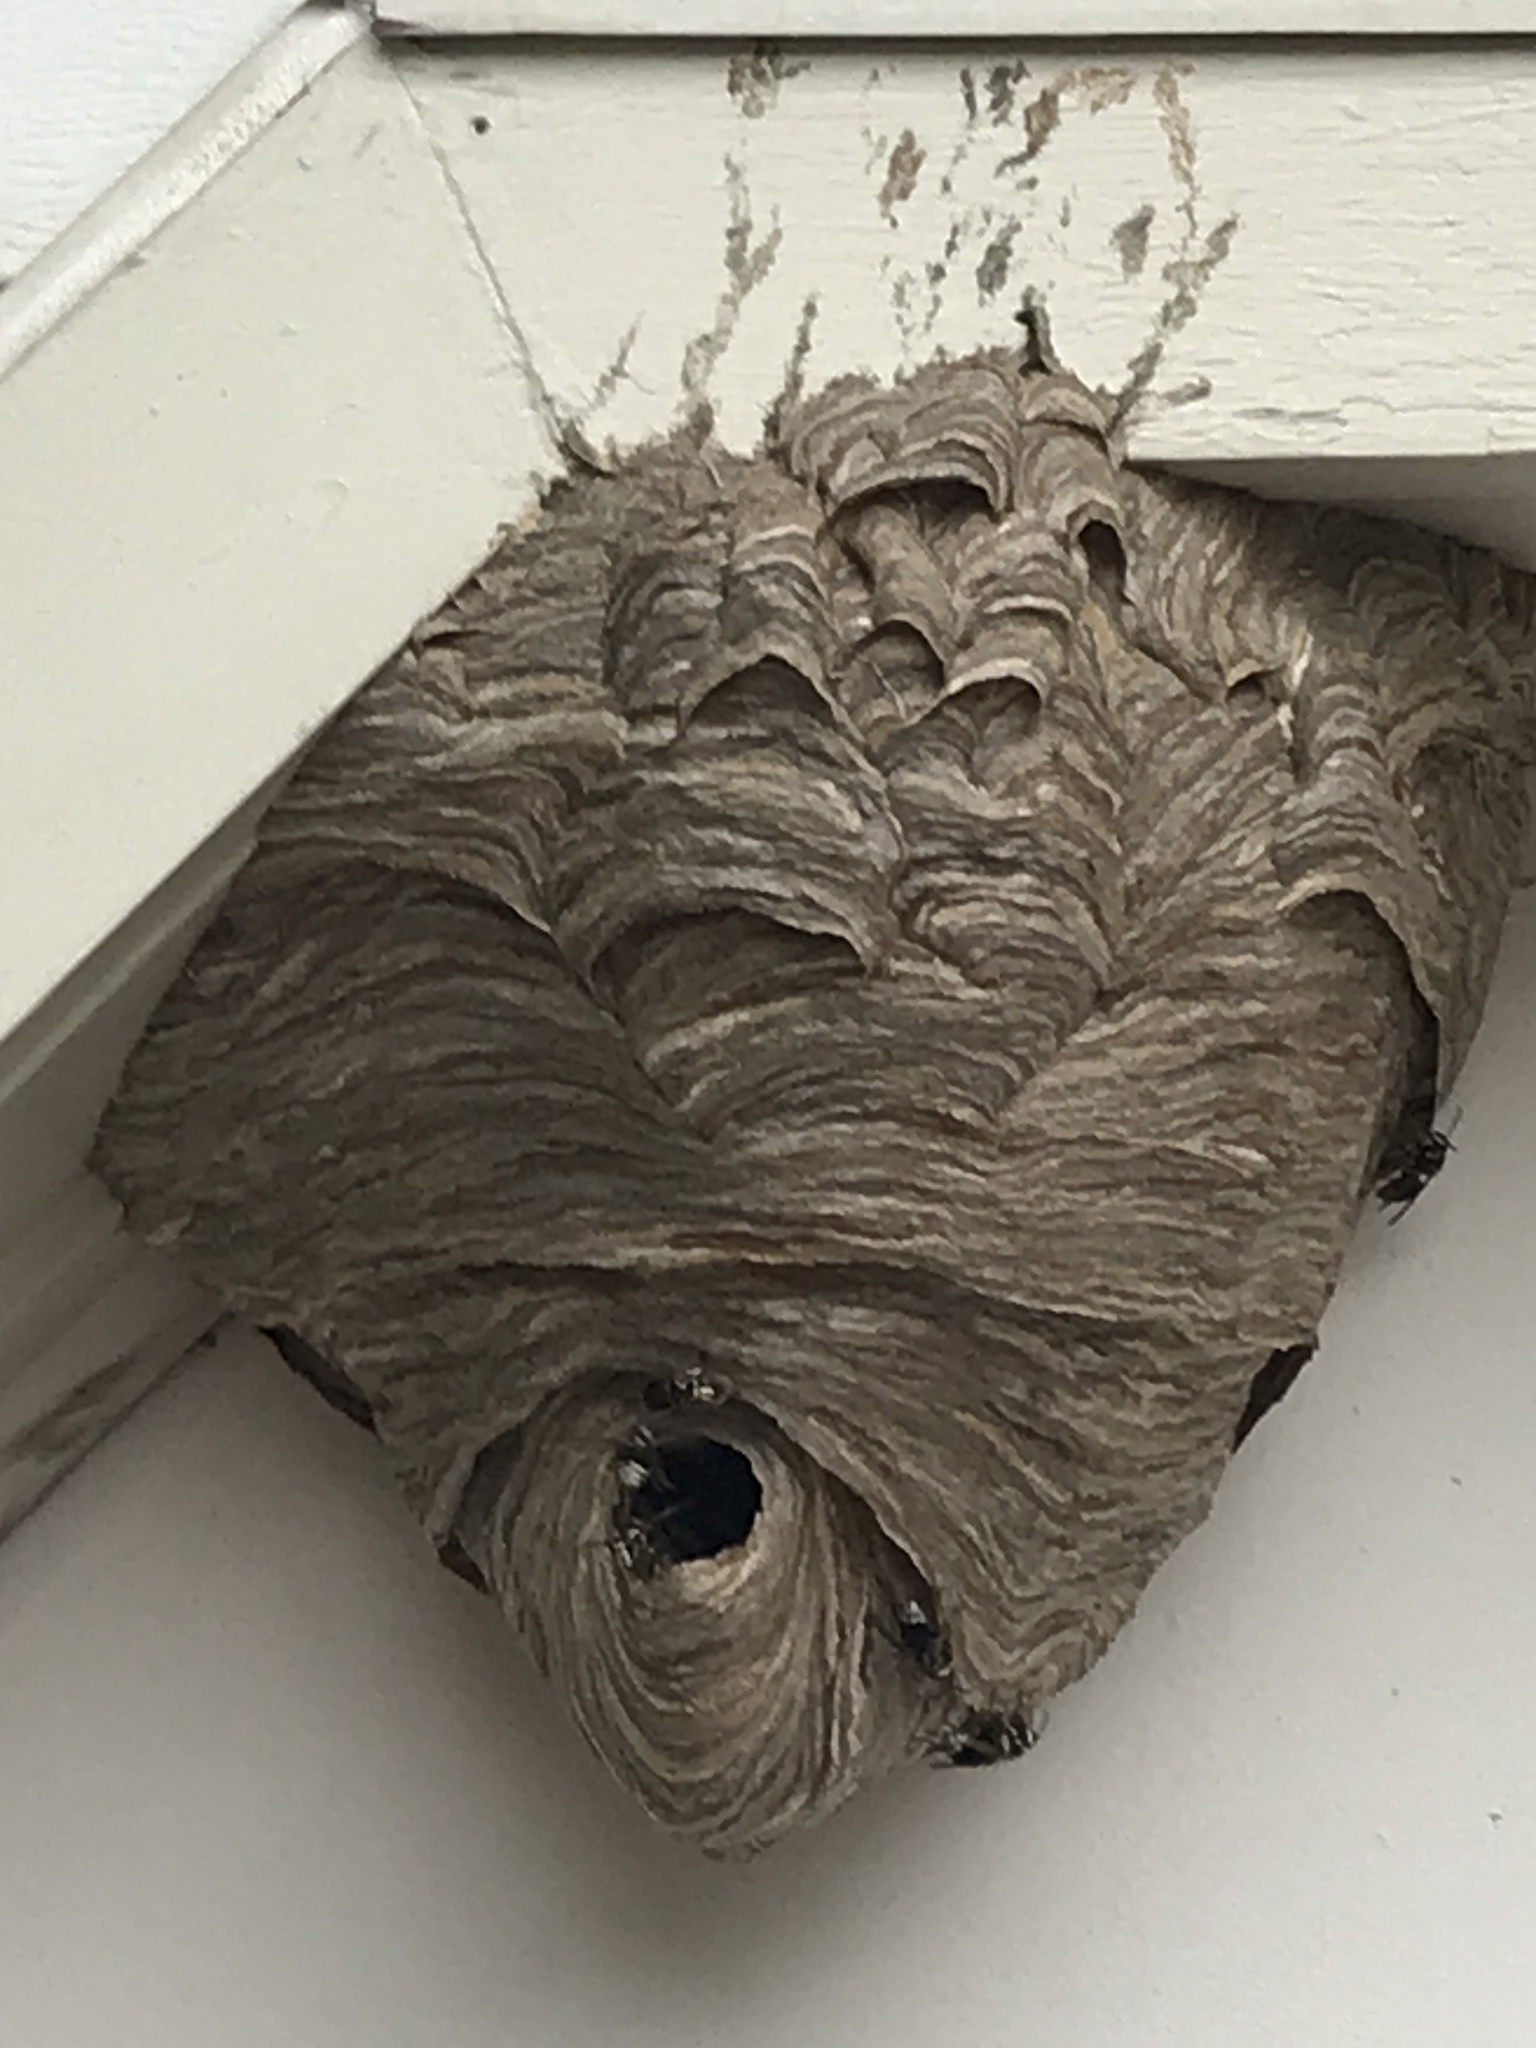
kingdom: Animalia
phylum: Arthropoda
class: Insecta
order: Hymenoptera
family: Vespidae
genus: Dolichovespula
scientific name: Dolichovespula maculata
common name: Bald-faced hornet
